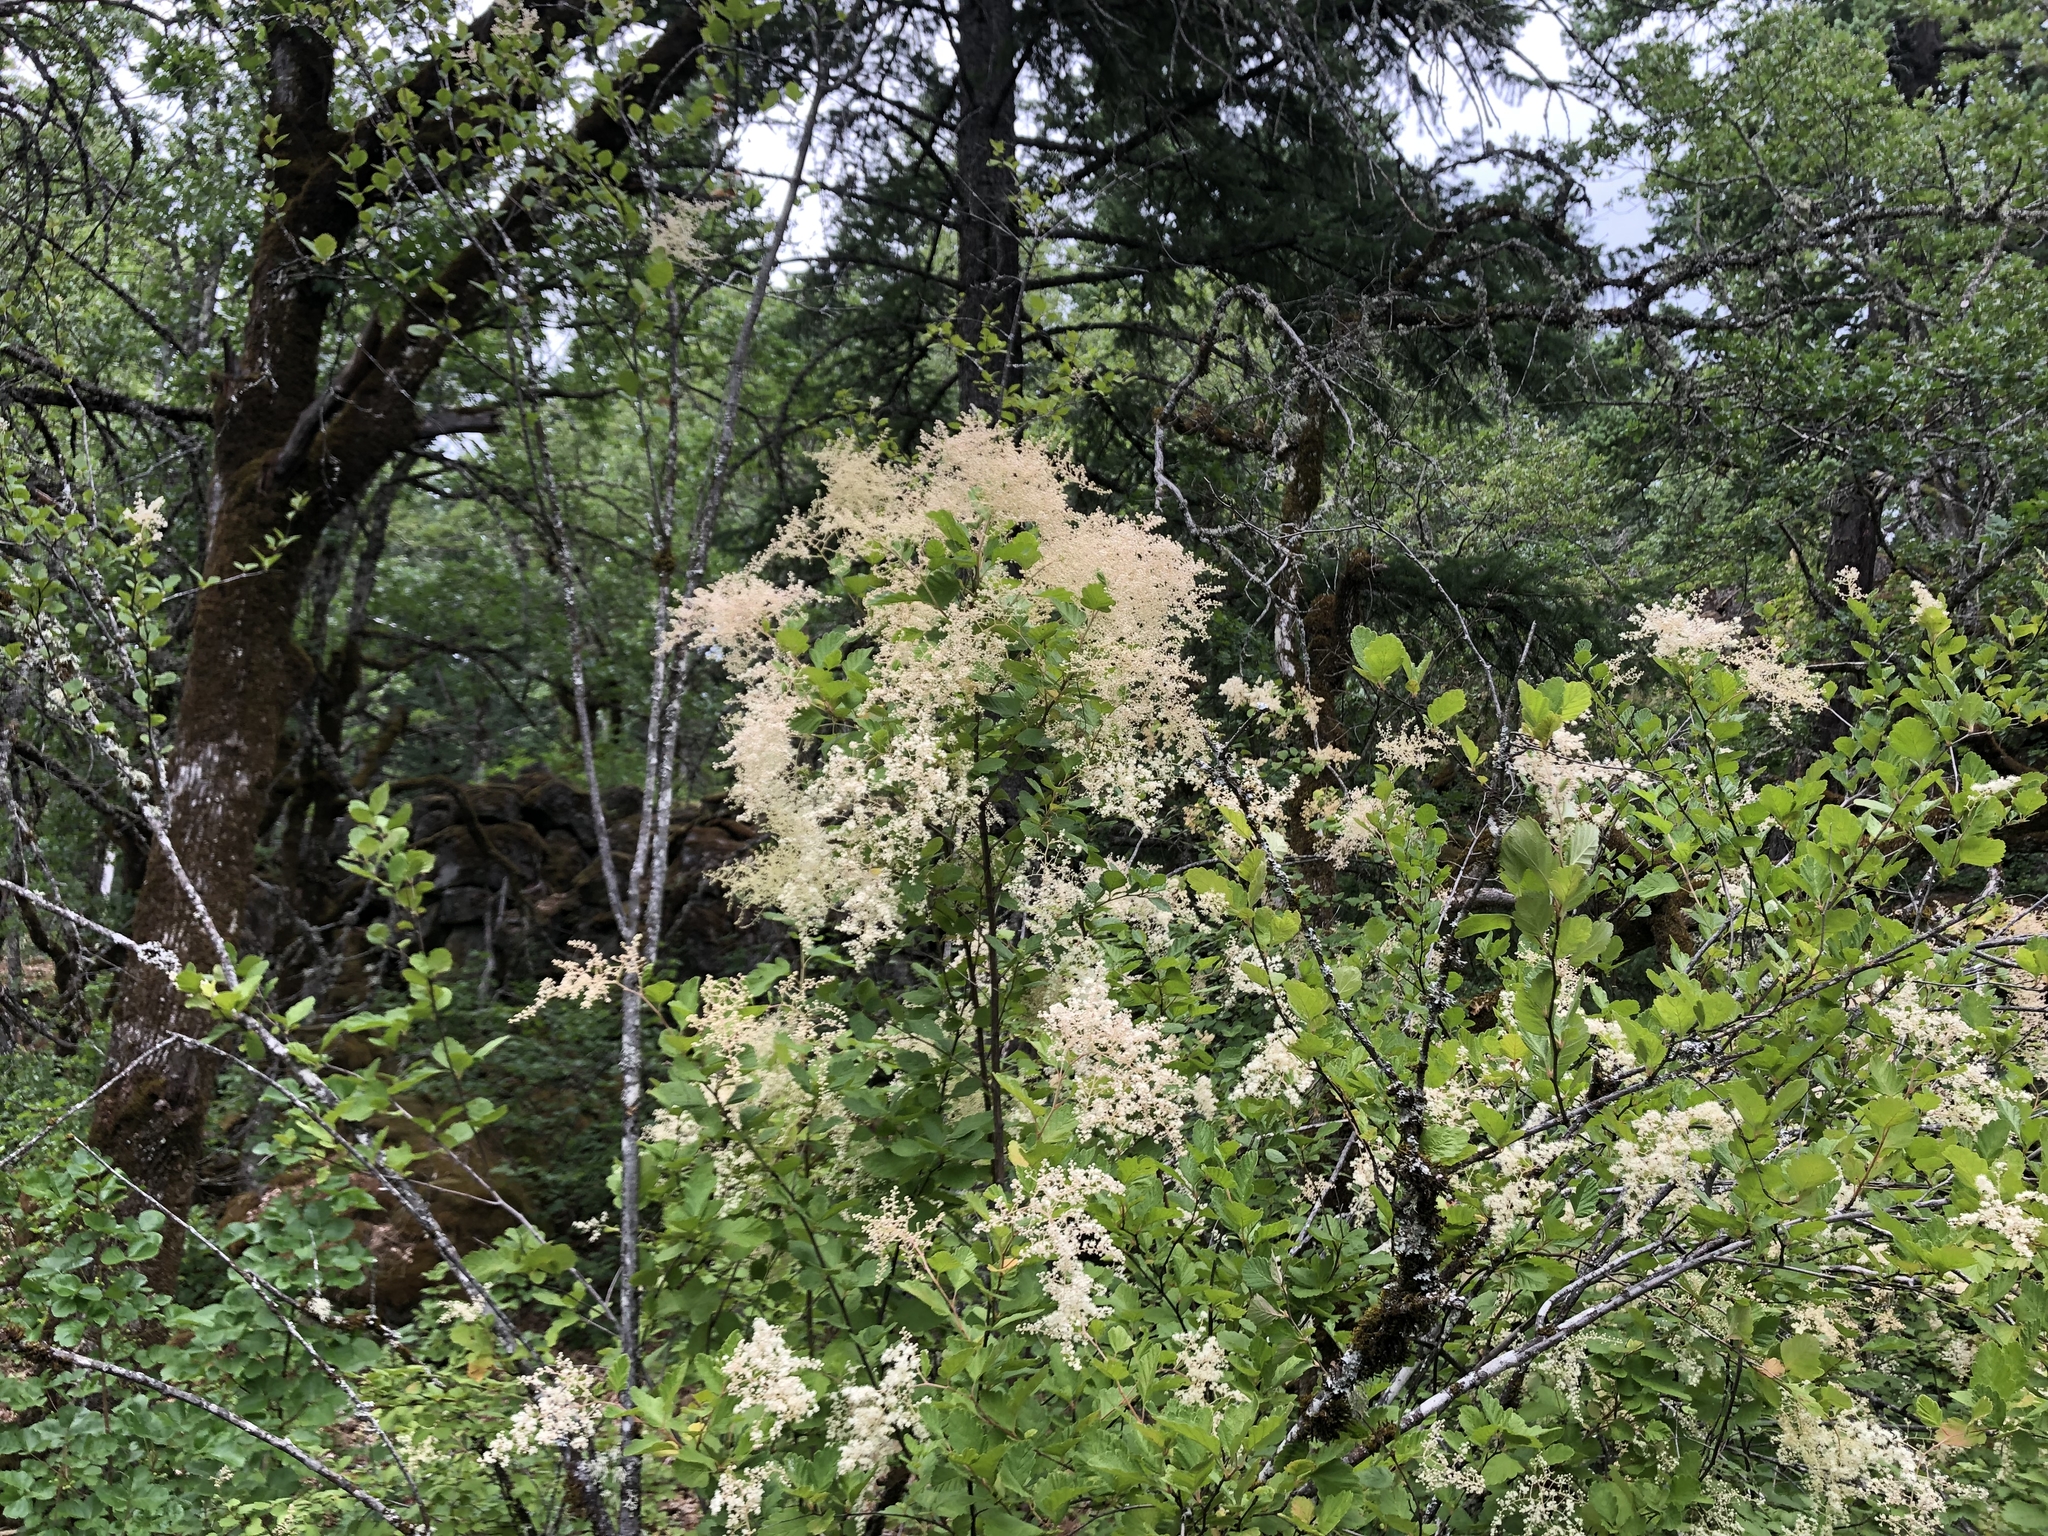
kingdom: Plantae
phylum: Tracheophyta
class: Magnoliopsida
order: Rosales
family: Rosaceae
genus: Holodiscus
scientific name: Holodiscus discolor
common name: Oceanspray
